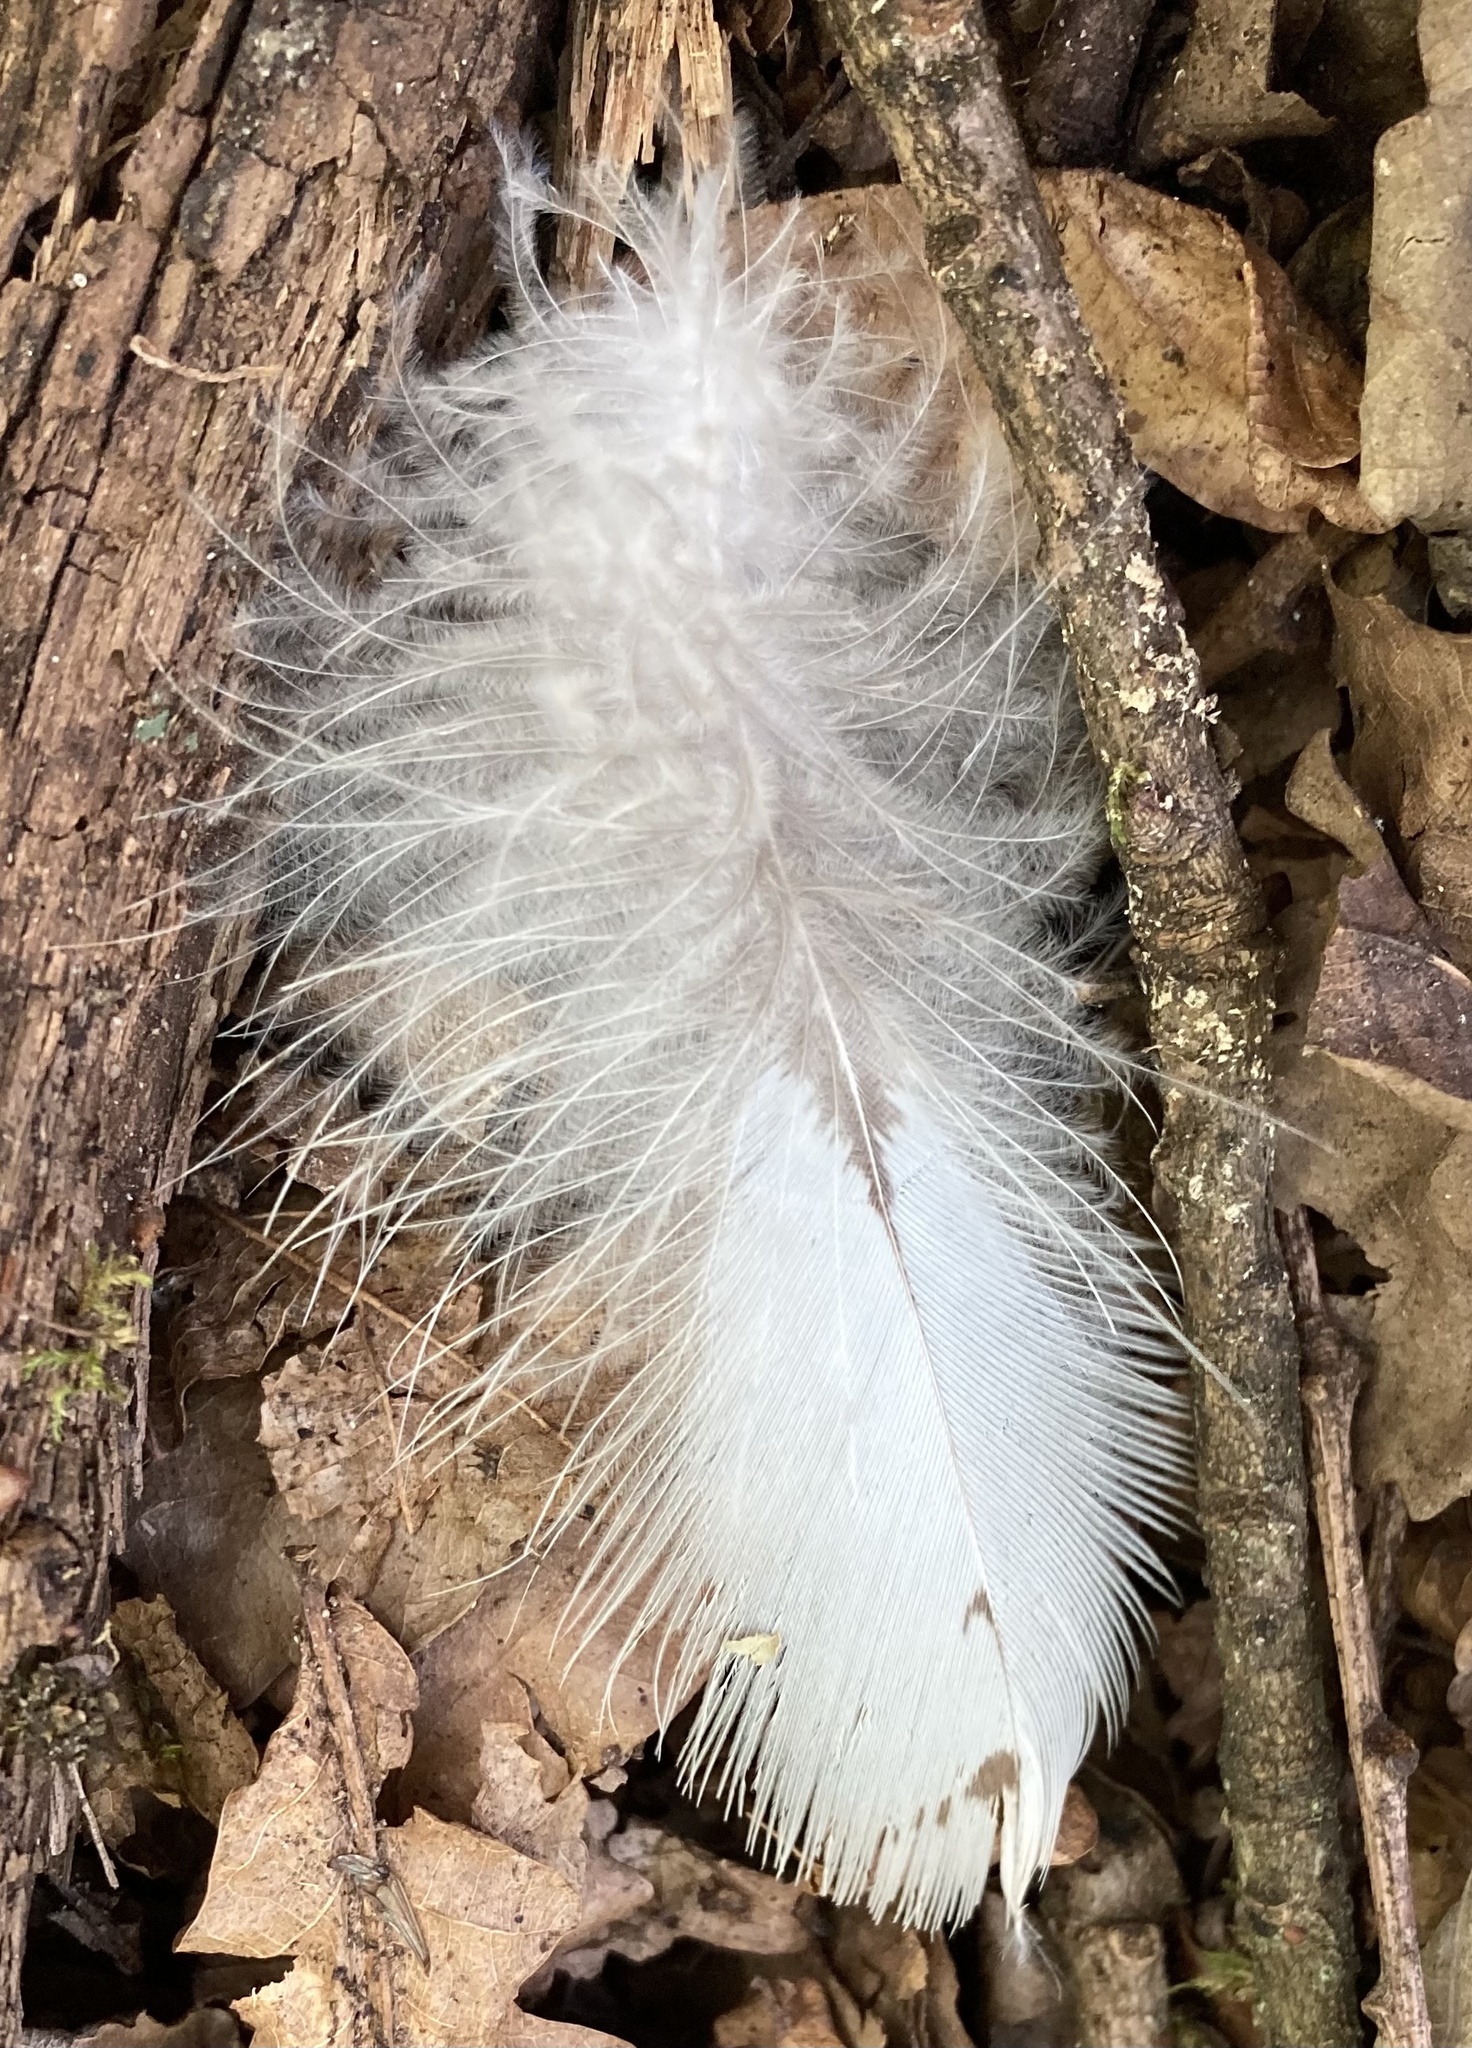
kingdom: Animalia
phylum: Chordata
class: Aves
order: Accipitriformes
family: Accipitridae
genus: Buteo
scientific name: Buteo buteo
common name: Common buzzard
